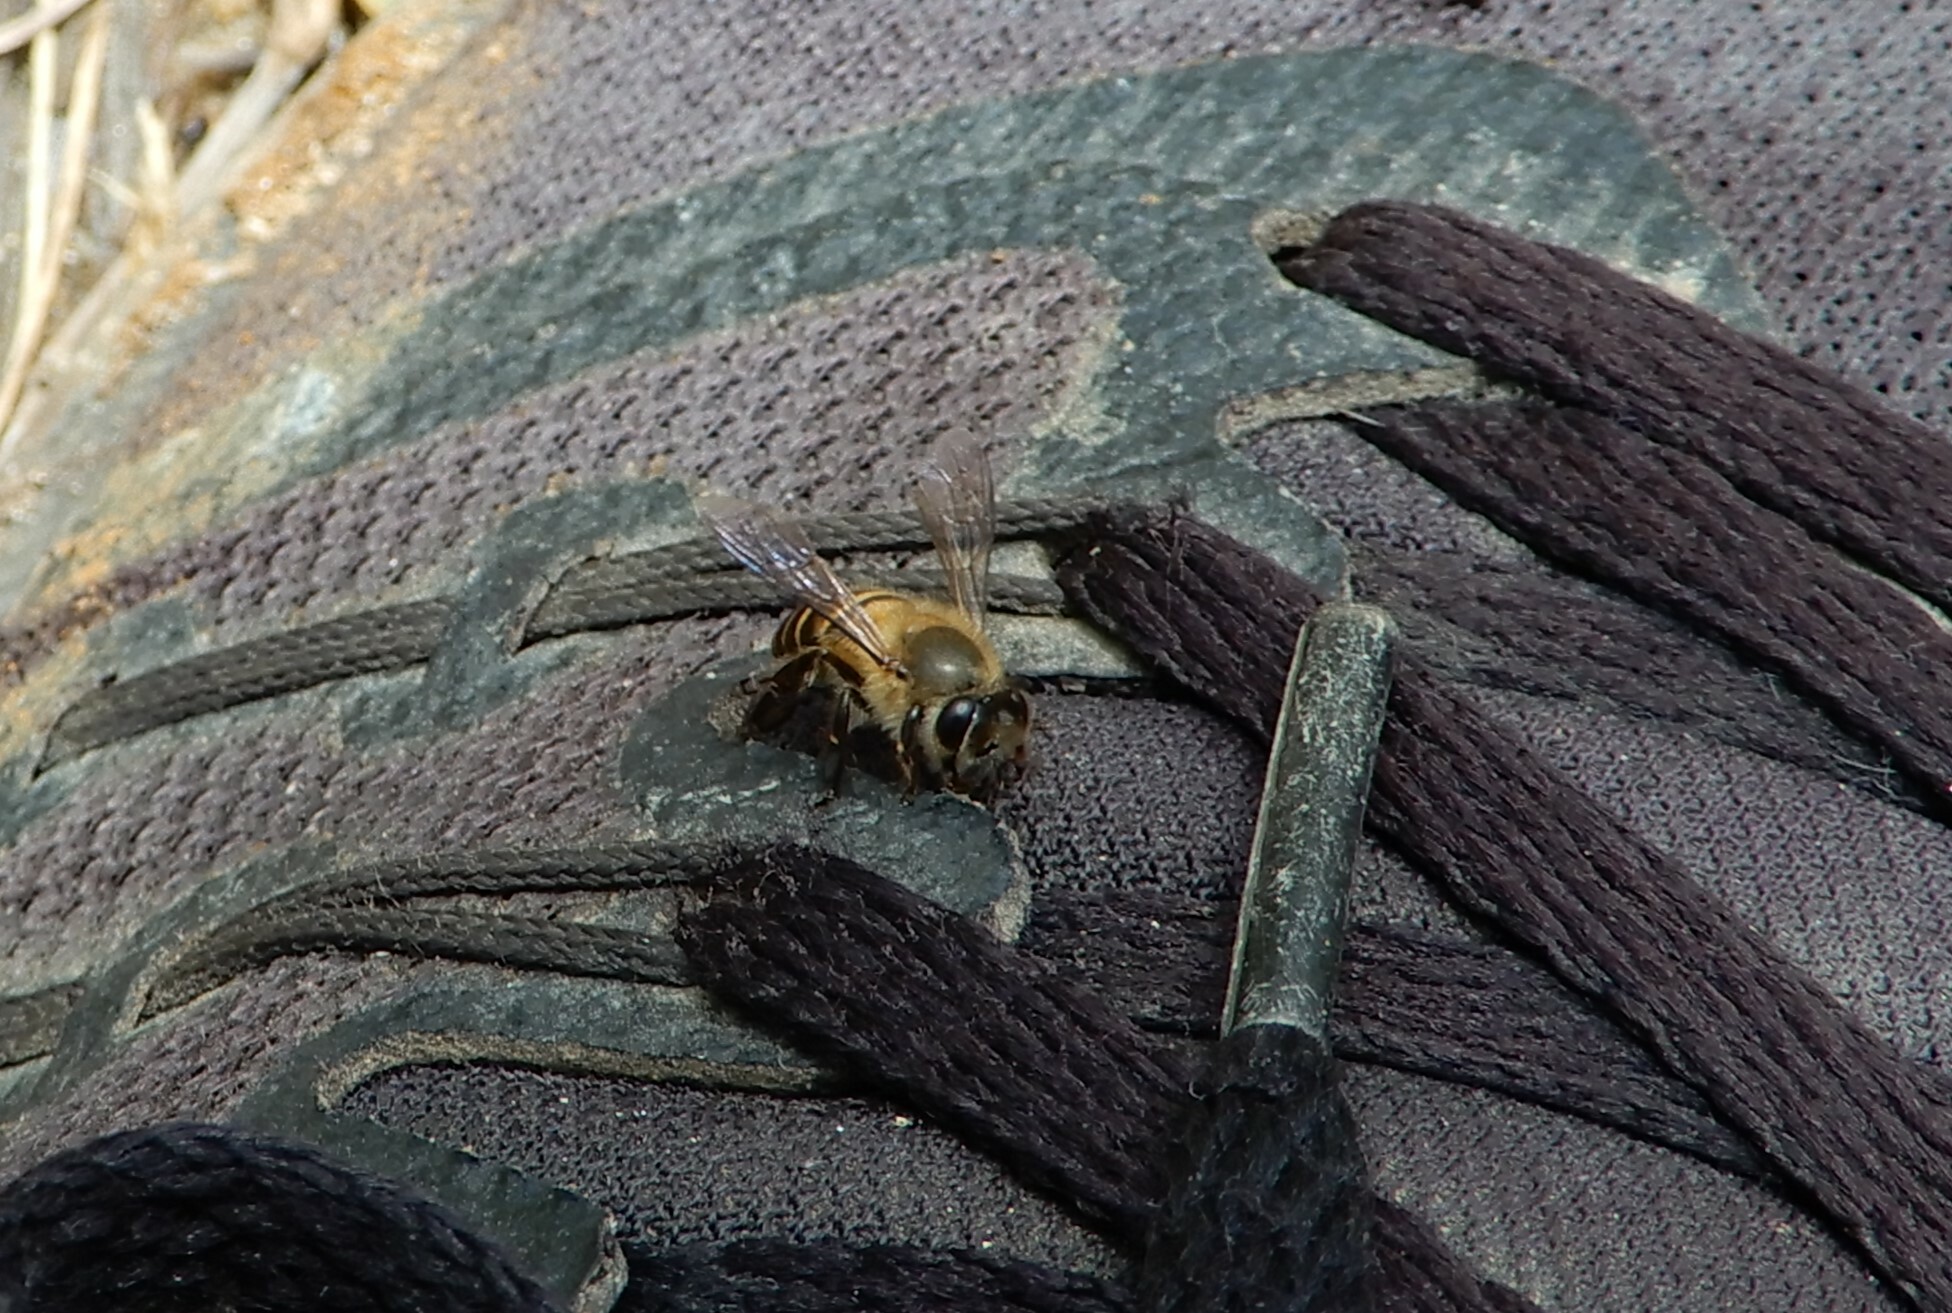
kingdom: Animalia
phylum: Arthropoda
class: Insecta
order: Hymenoptera
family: Apidae
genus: Apis
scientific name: Apis cerana
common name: Honey bee
